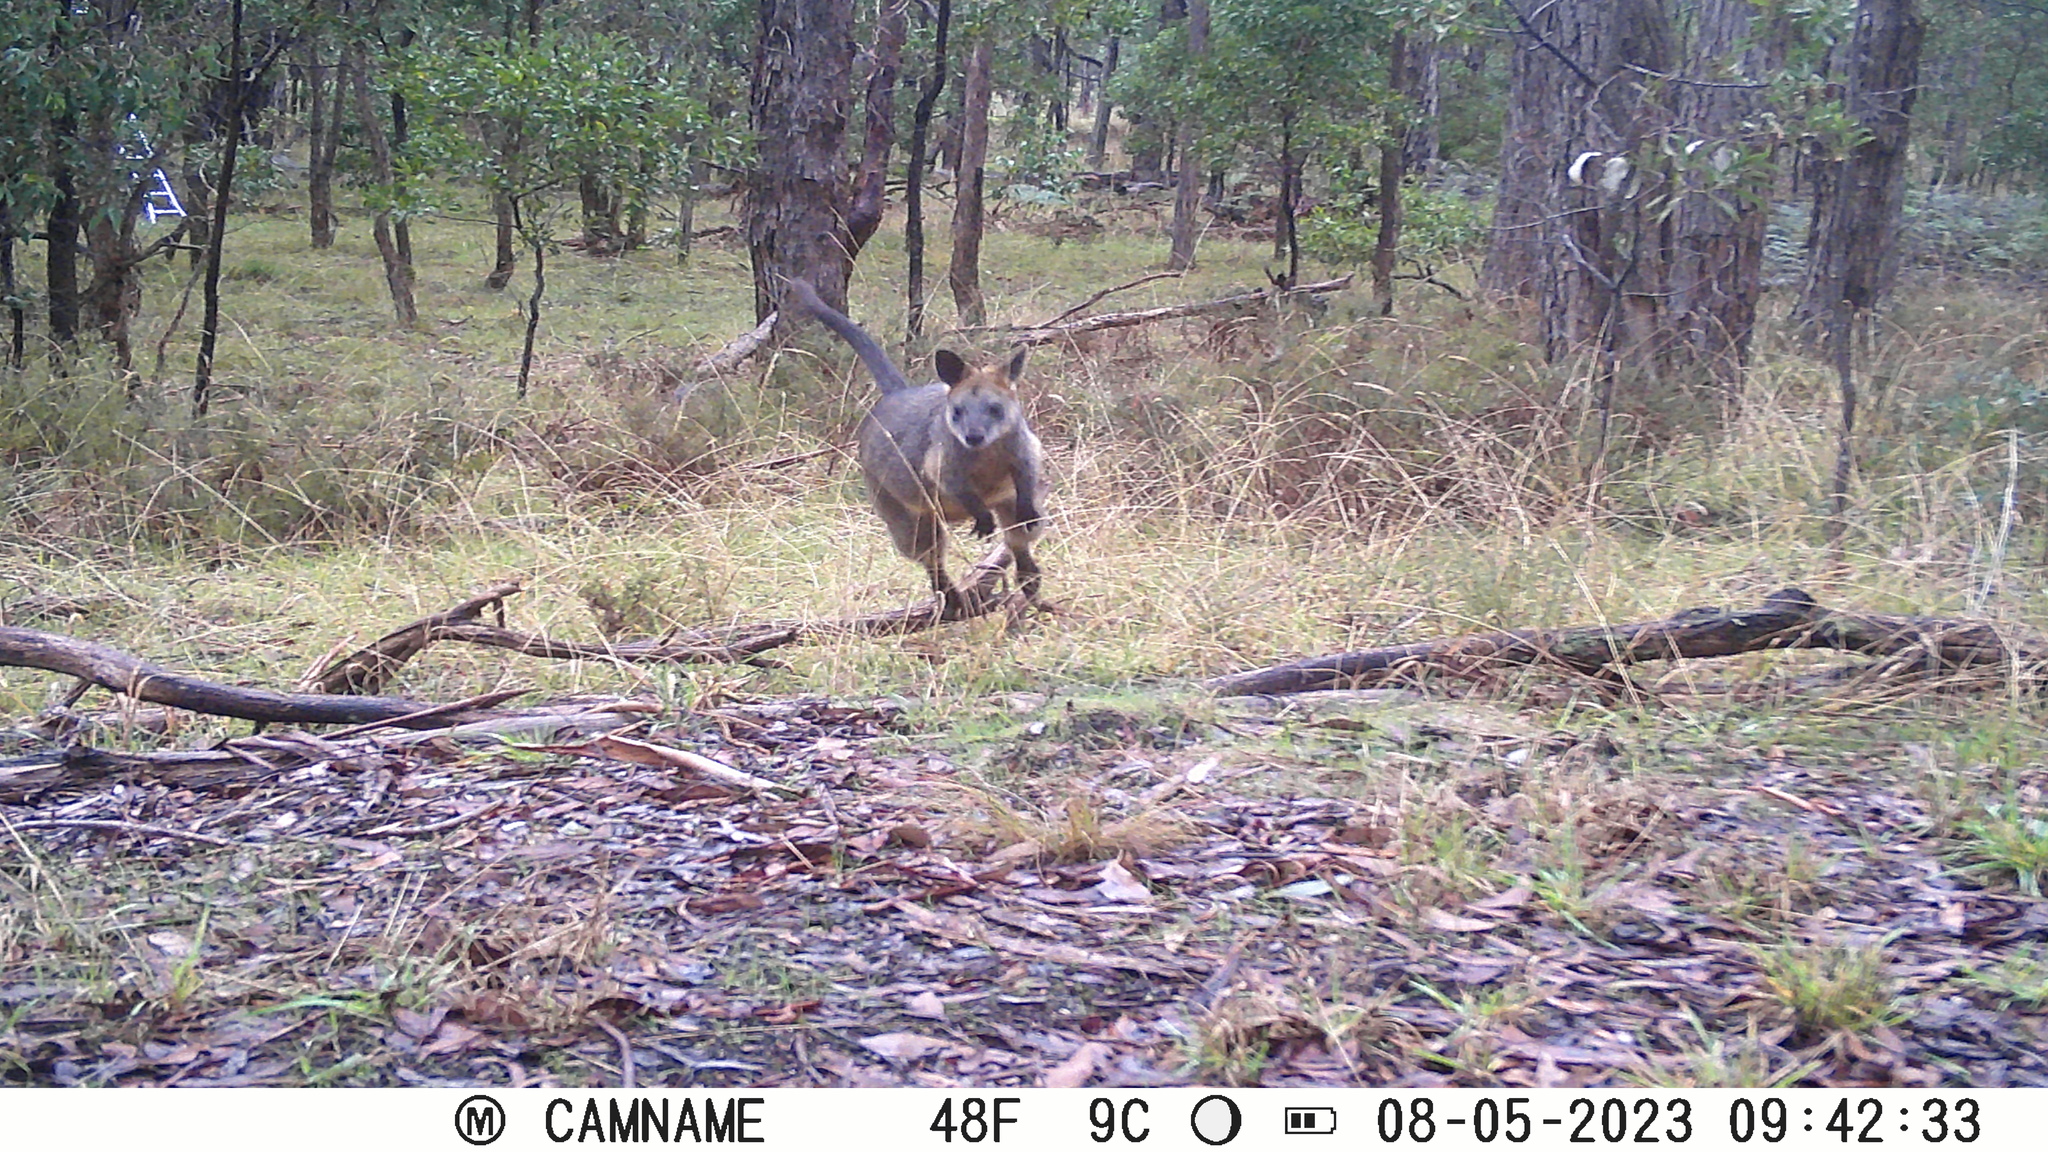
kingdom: Animalia
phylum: Chordata
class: Mammalia
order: Diprotodontia
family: Macropodidae
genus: Wallabia
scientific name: Wallabia bicolor
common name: Swamp wallaby
